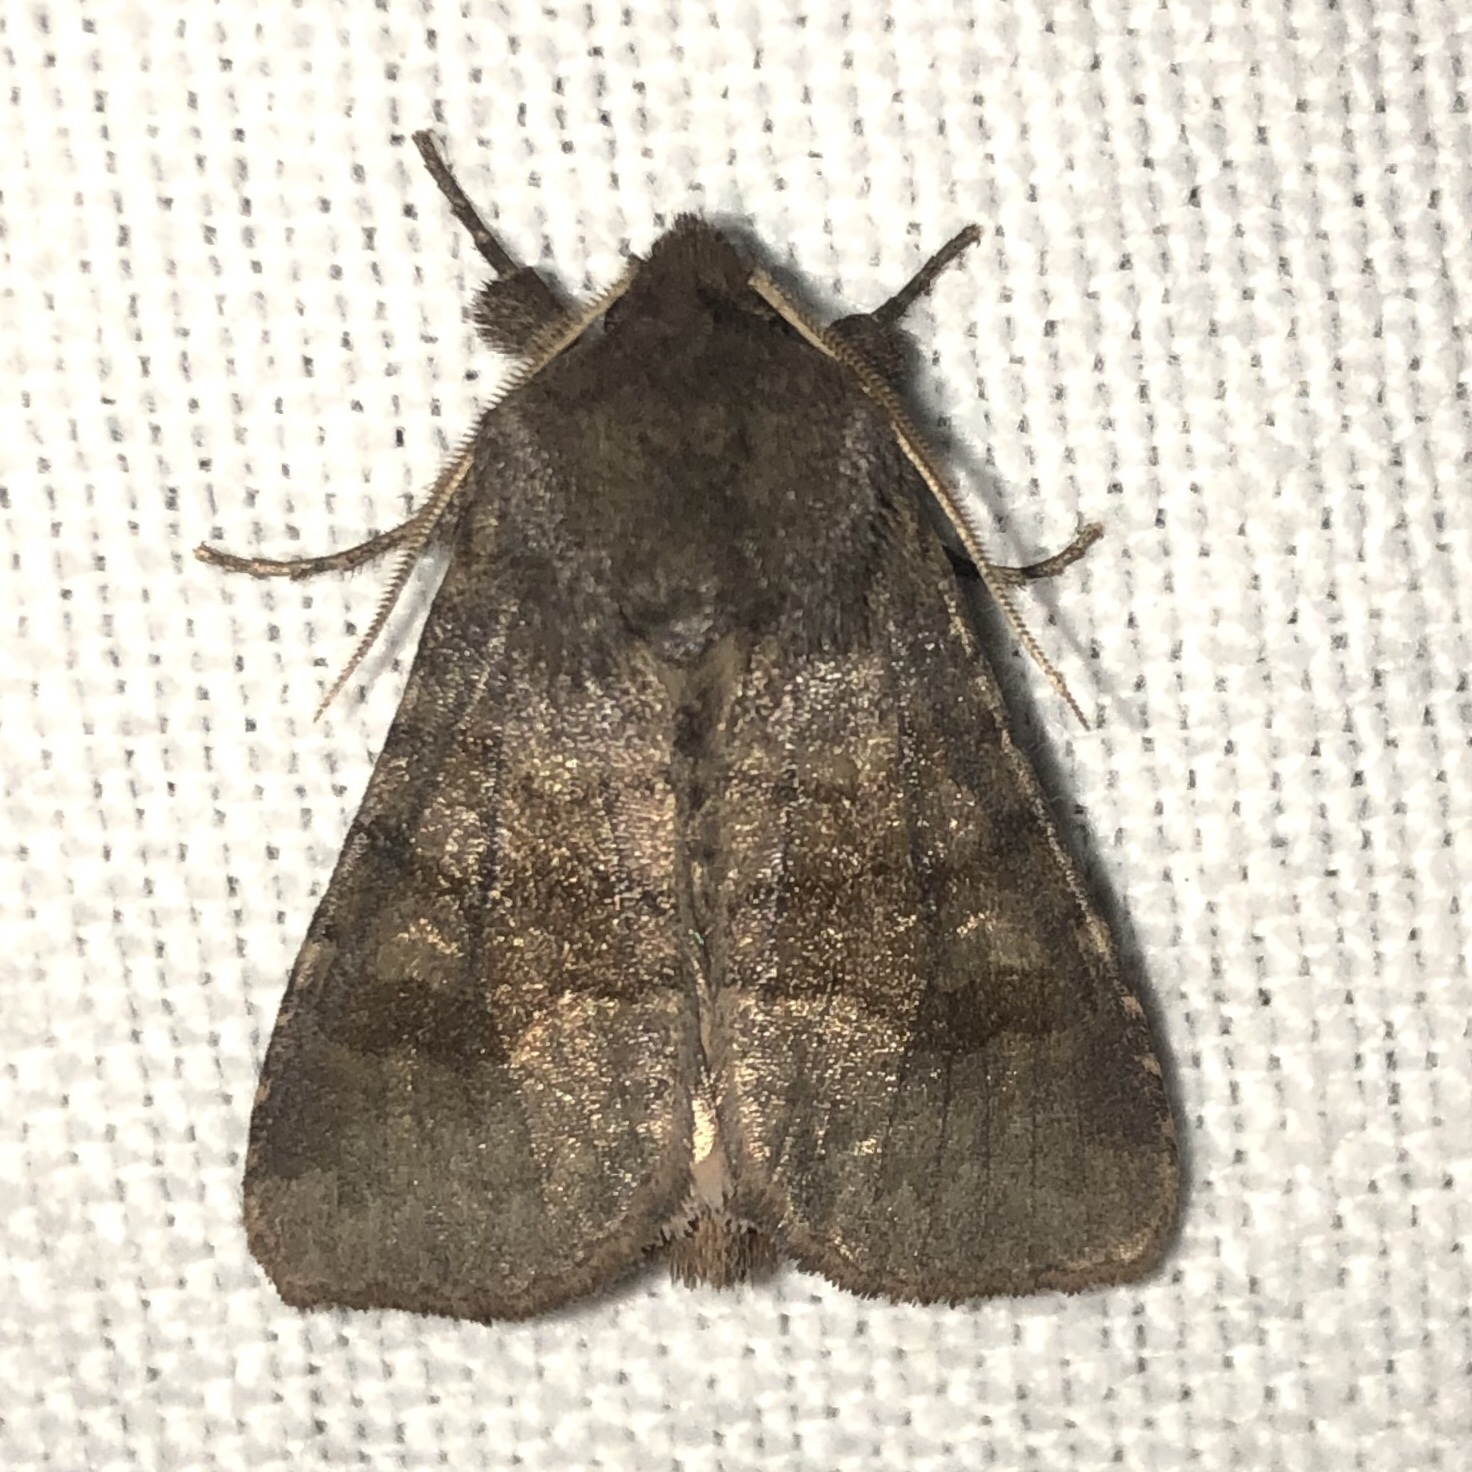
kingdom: Animalia
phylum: Arthropoda
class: Insecta
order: Lepidoptera
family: Noctuidae
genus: Nephelodes
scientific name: Nephelodes minians
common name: Bronzed cutworm
